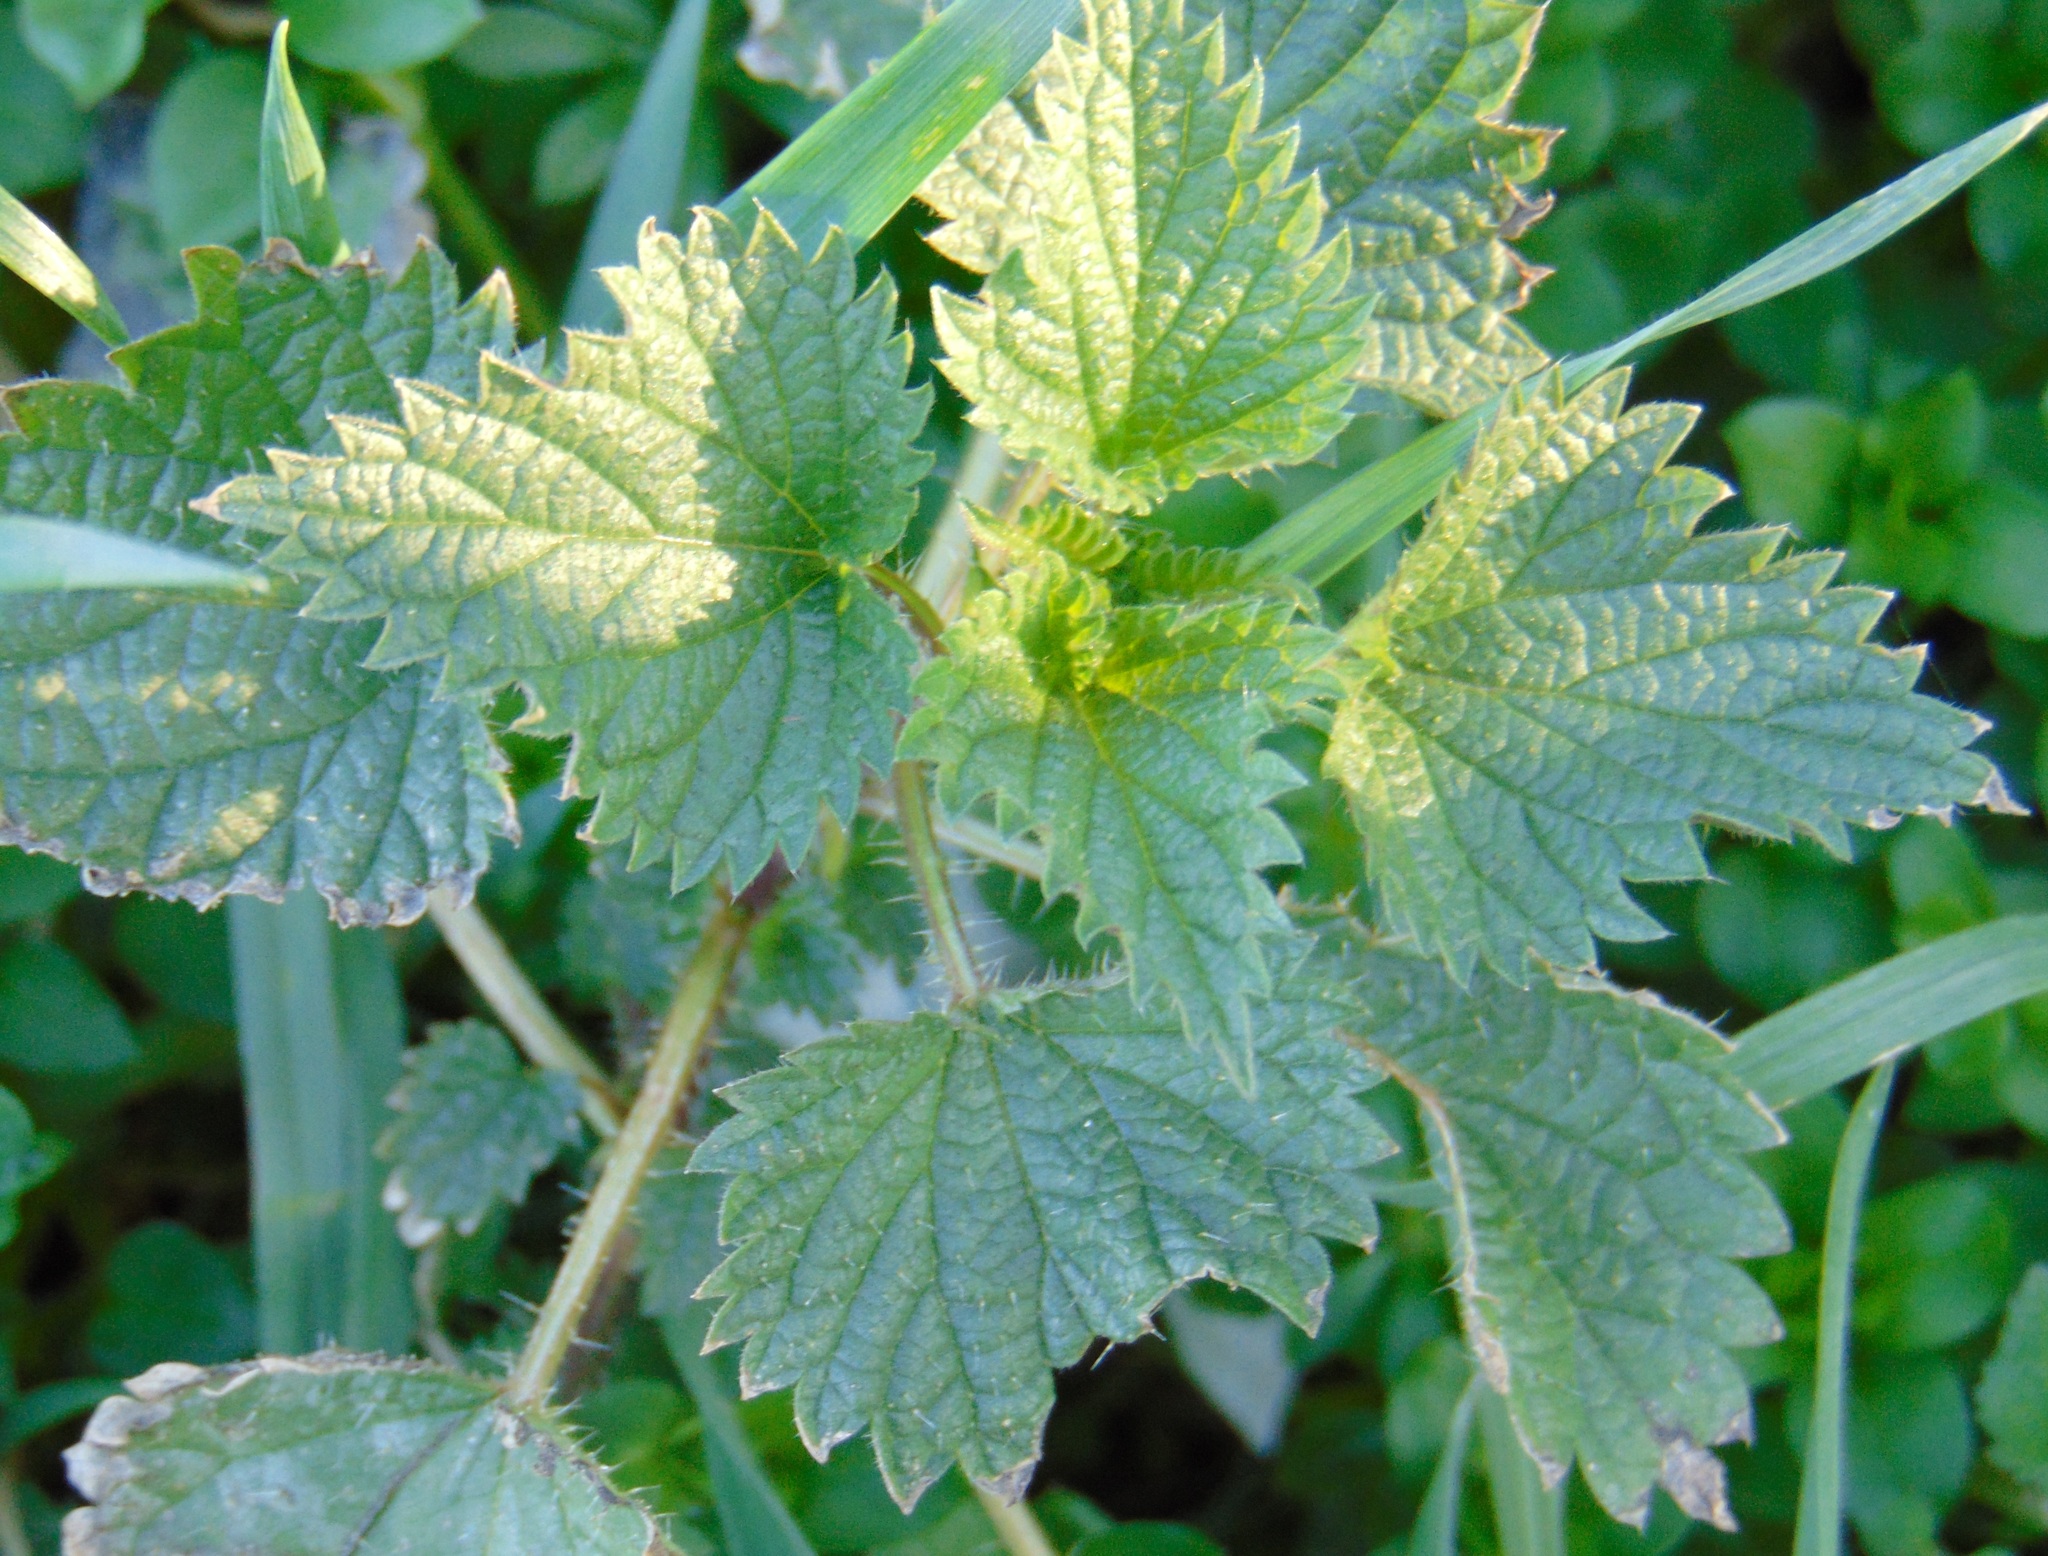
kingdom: Plantae
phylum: Tracheophyta
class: Magnoliopsida
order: Rosales
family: Urticaceae
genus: Urtica
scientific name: Urtica dioica
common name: Common nettle
